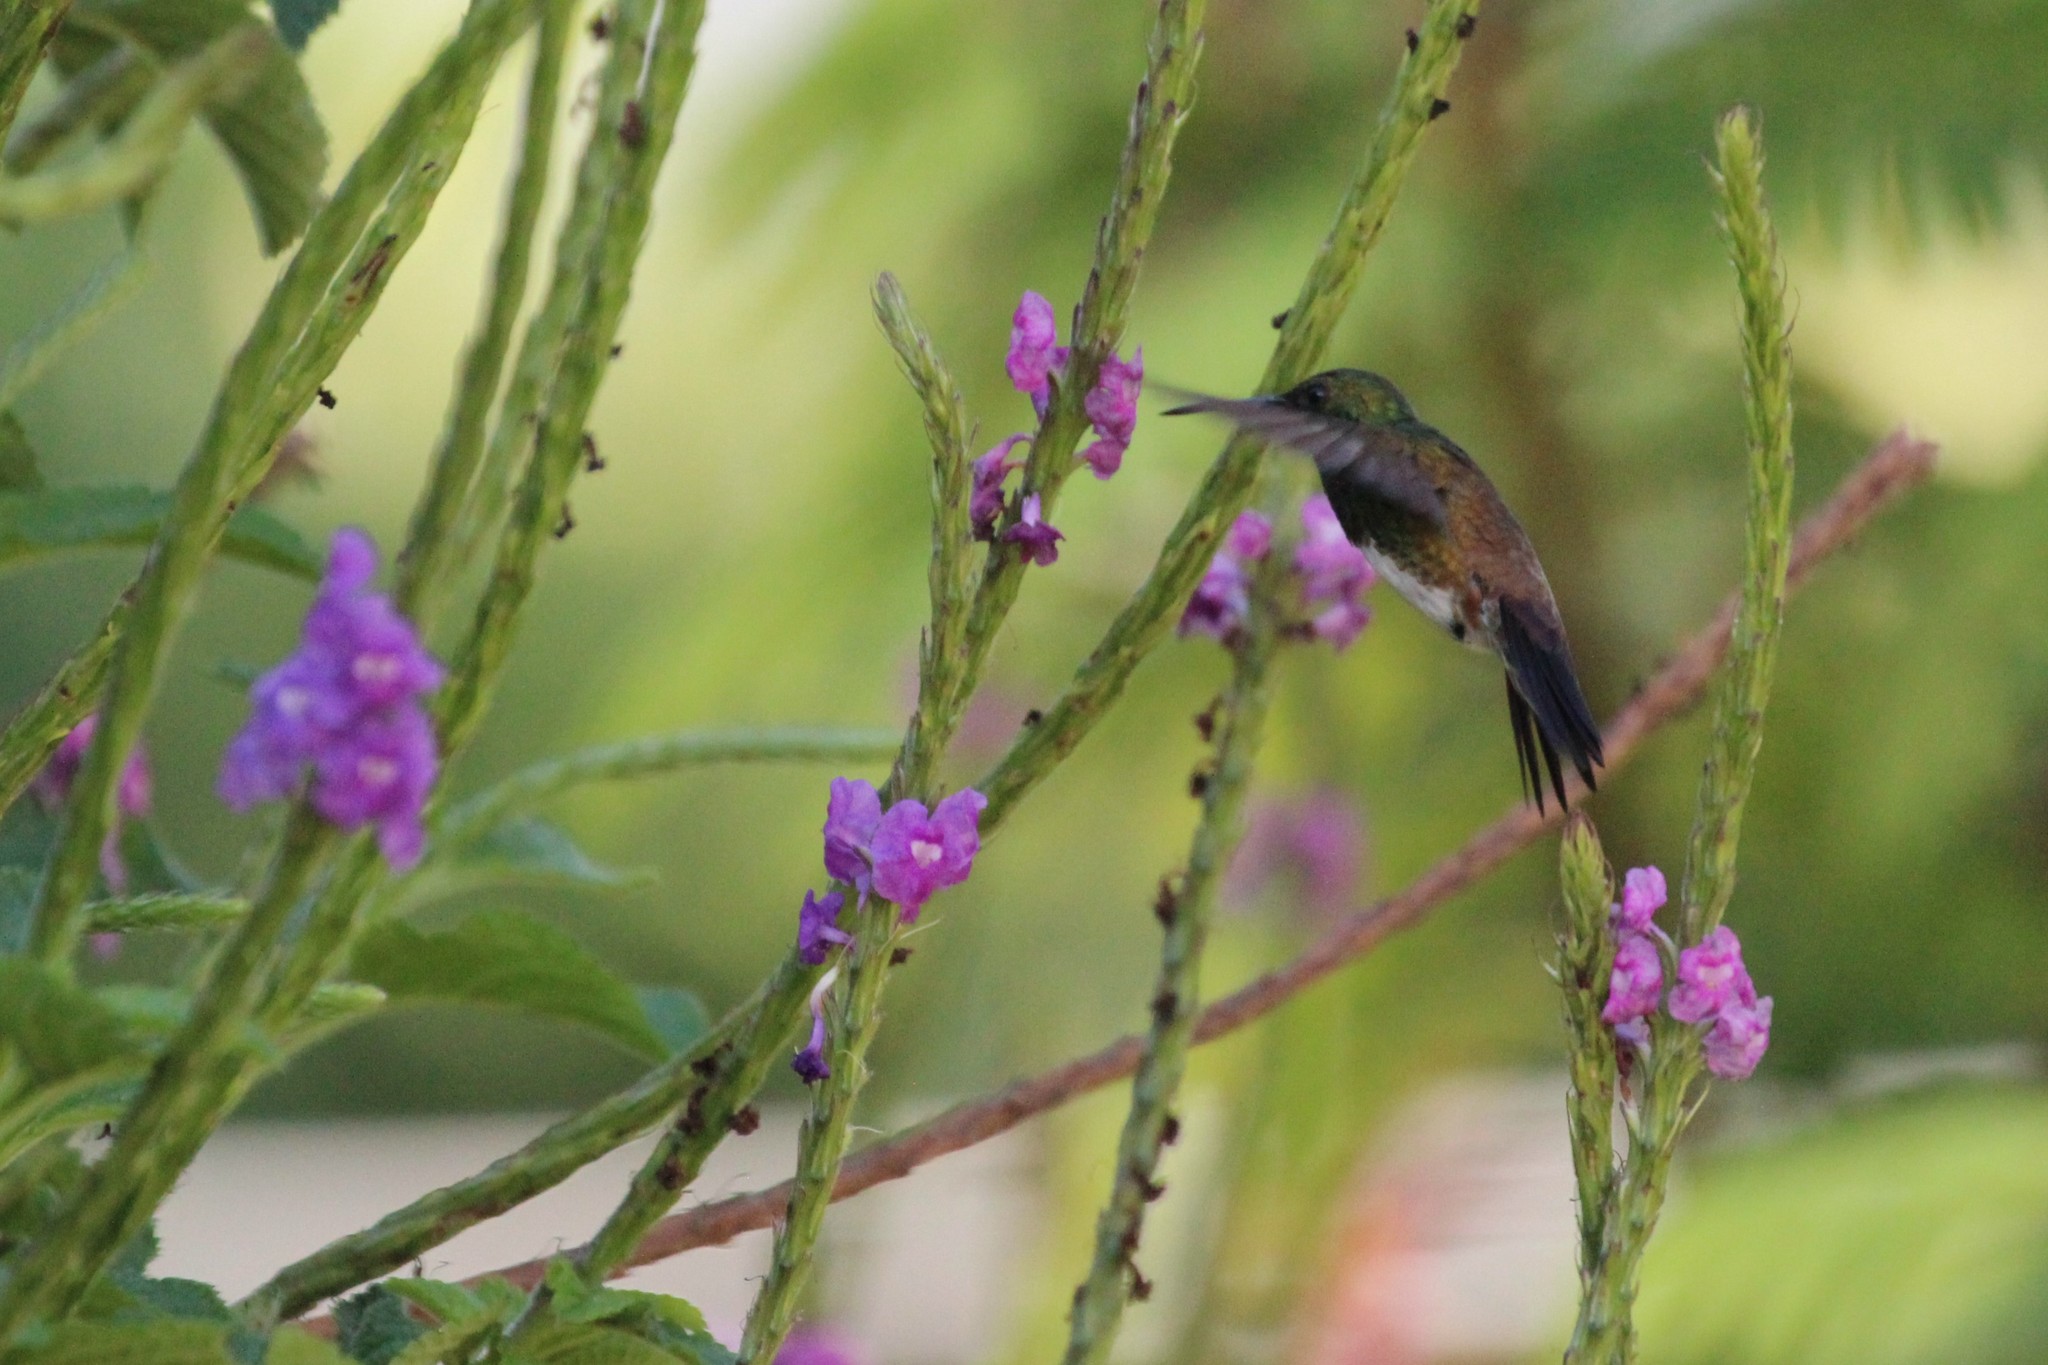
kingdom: Animalia
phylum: Chordata
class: Aves
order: Apodiformes
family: Trochilidae
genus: Saucerottia
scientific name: Saucerottia edward
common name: Snowy-bellied hummingbird
